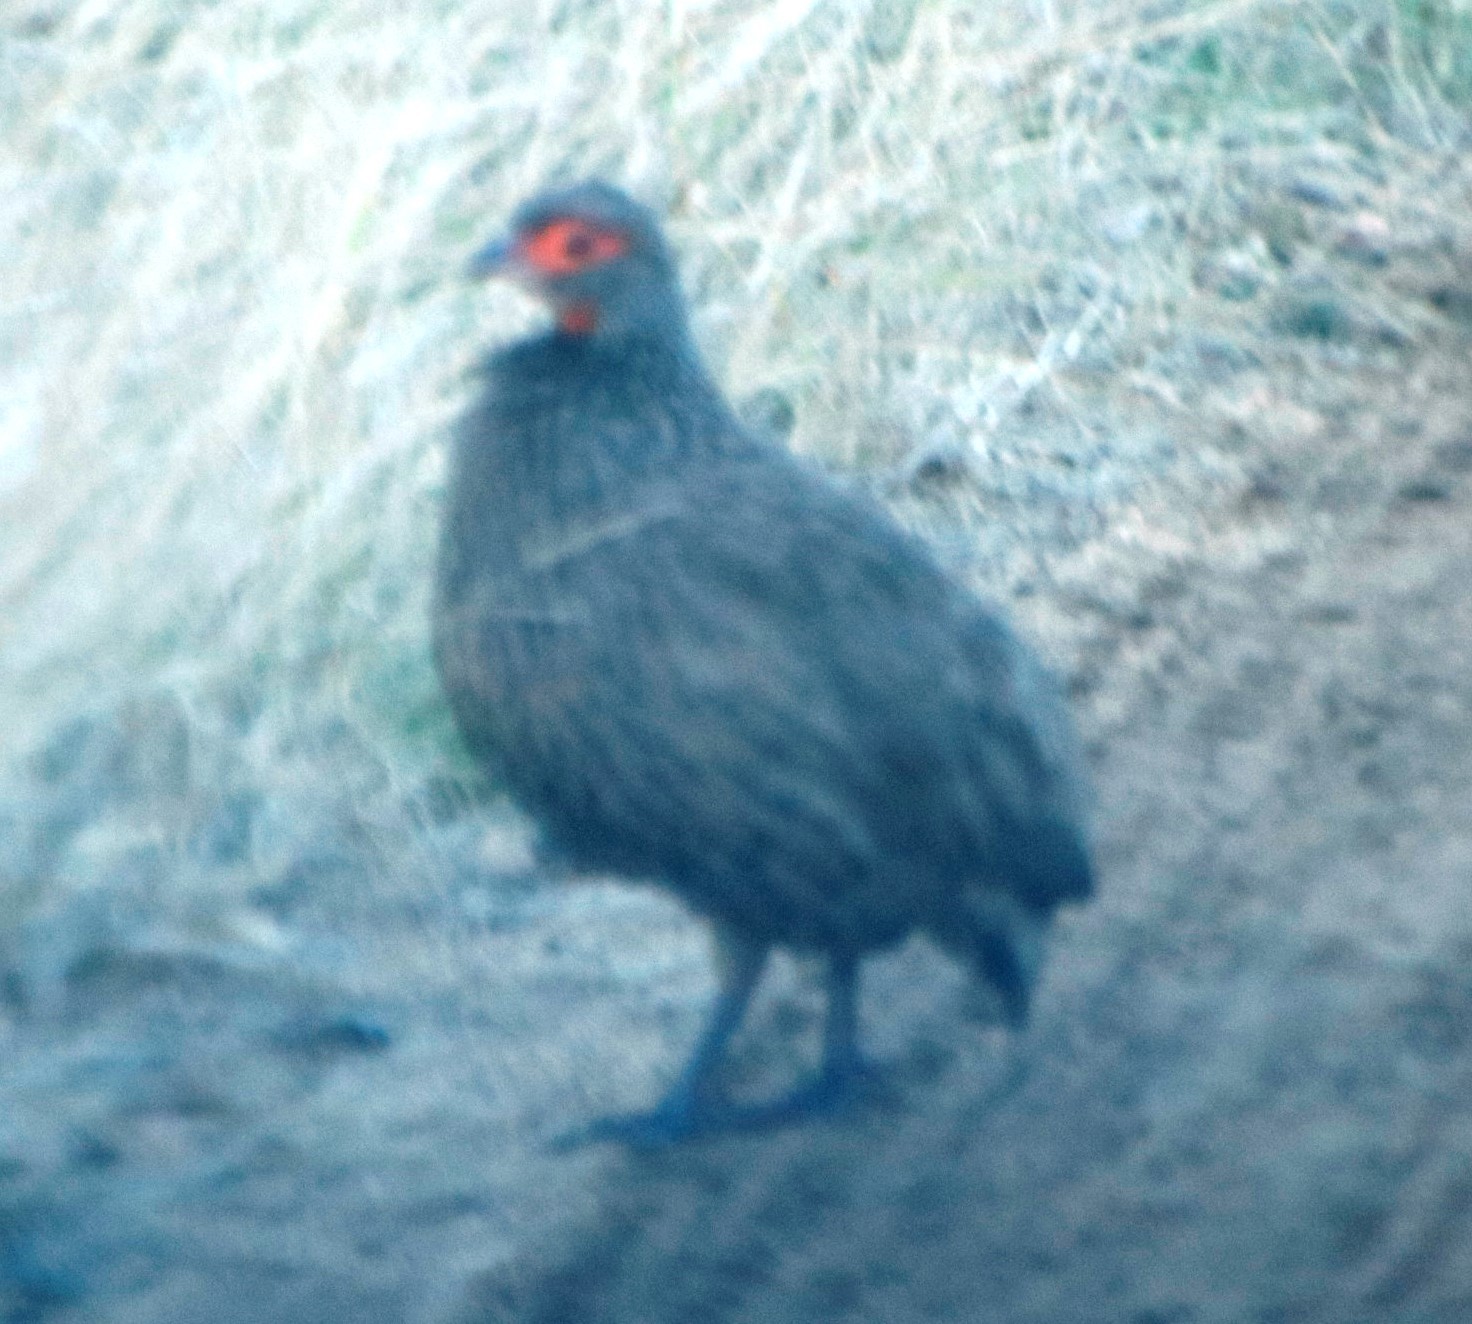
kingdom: Animalia
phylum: Chordata
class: Aves
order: Galliformes
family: Phasianidae
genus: Pternistis
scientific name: Pternistis swainsonii
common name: Swainson's spurfowl
